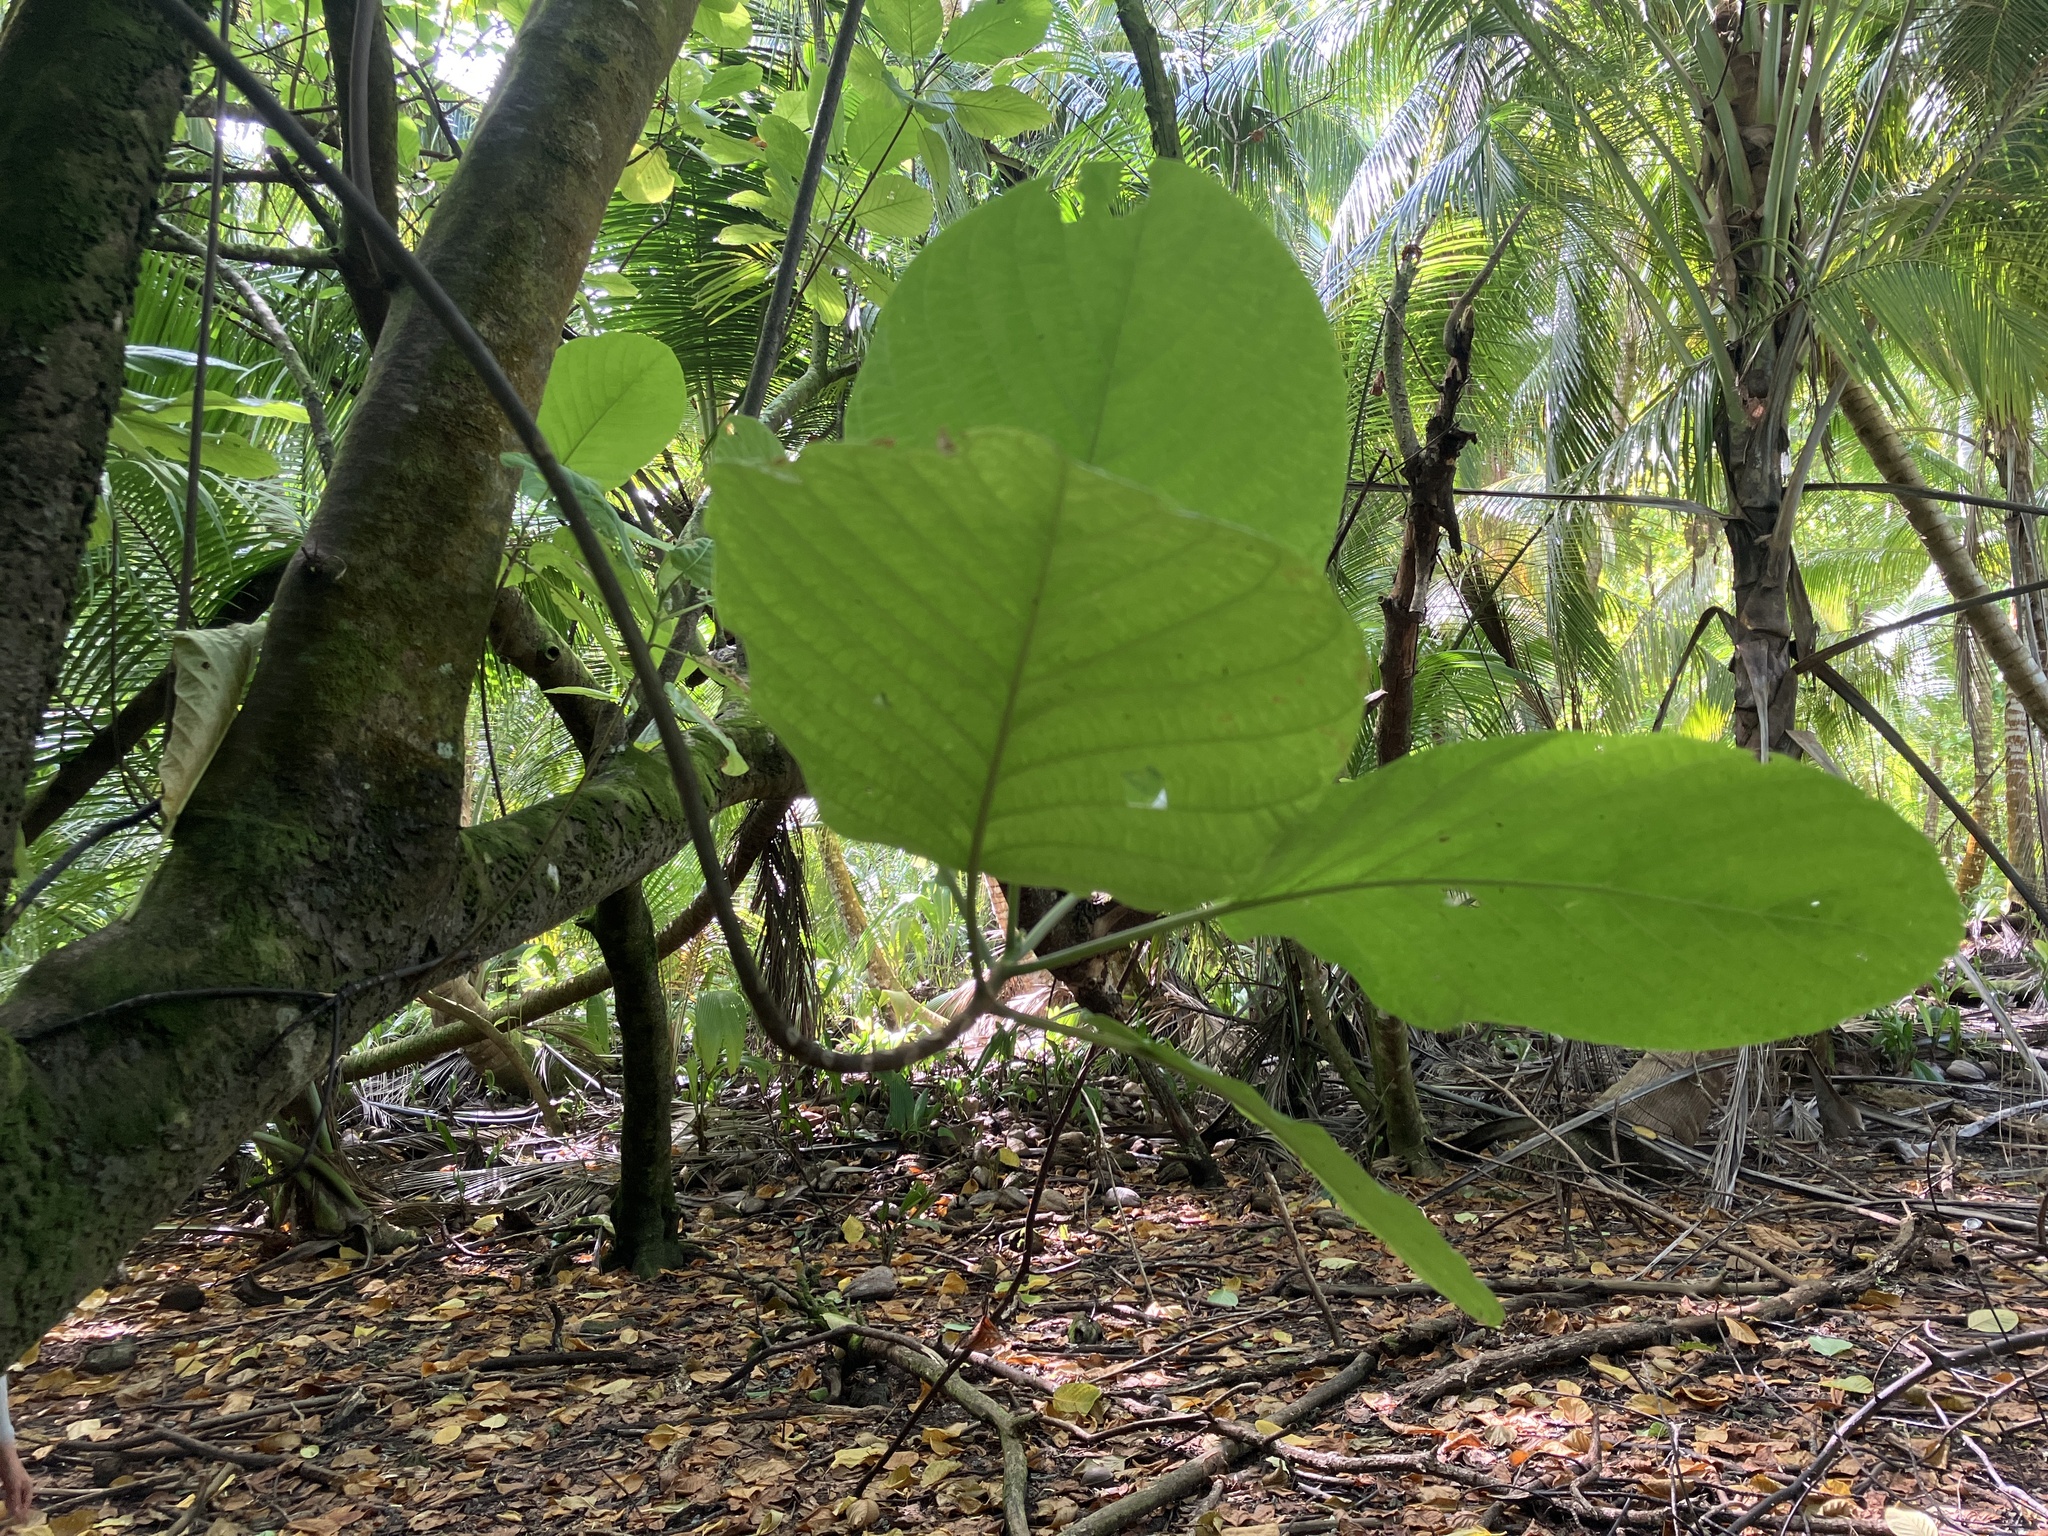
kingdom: Plantae
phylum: Tracheophyta
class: Magnoliopsida
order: Gentianales
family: Rubiaceae
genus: Guettarda
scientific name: Guettarda speciosa
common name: Sea randa
